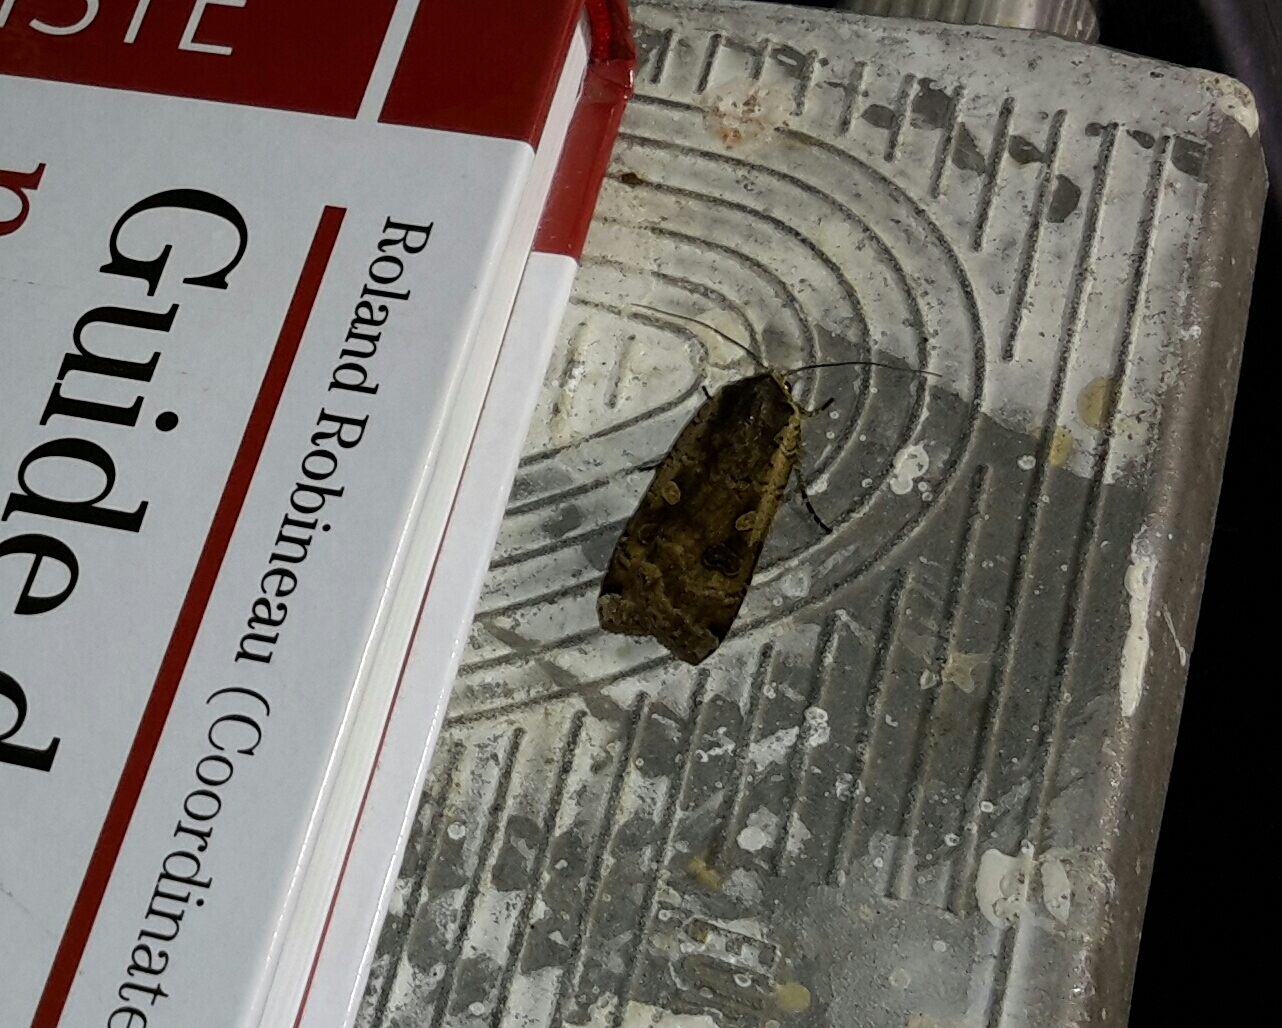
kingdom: Animalia
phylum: Arthropoda
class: Insecta
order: Lepidoptera
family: Noctuidae
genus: Noctua
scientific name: Noctua pronuba
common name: Large yellow underwing
